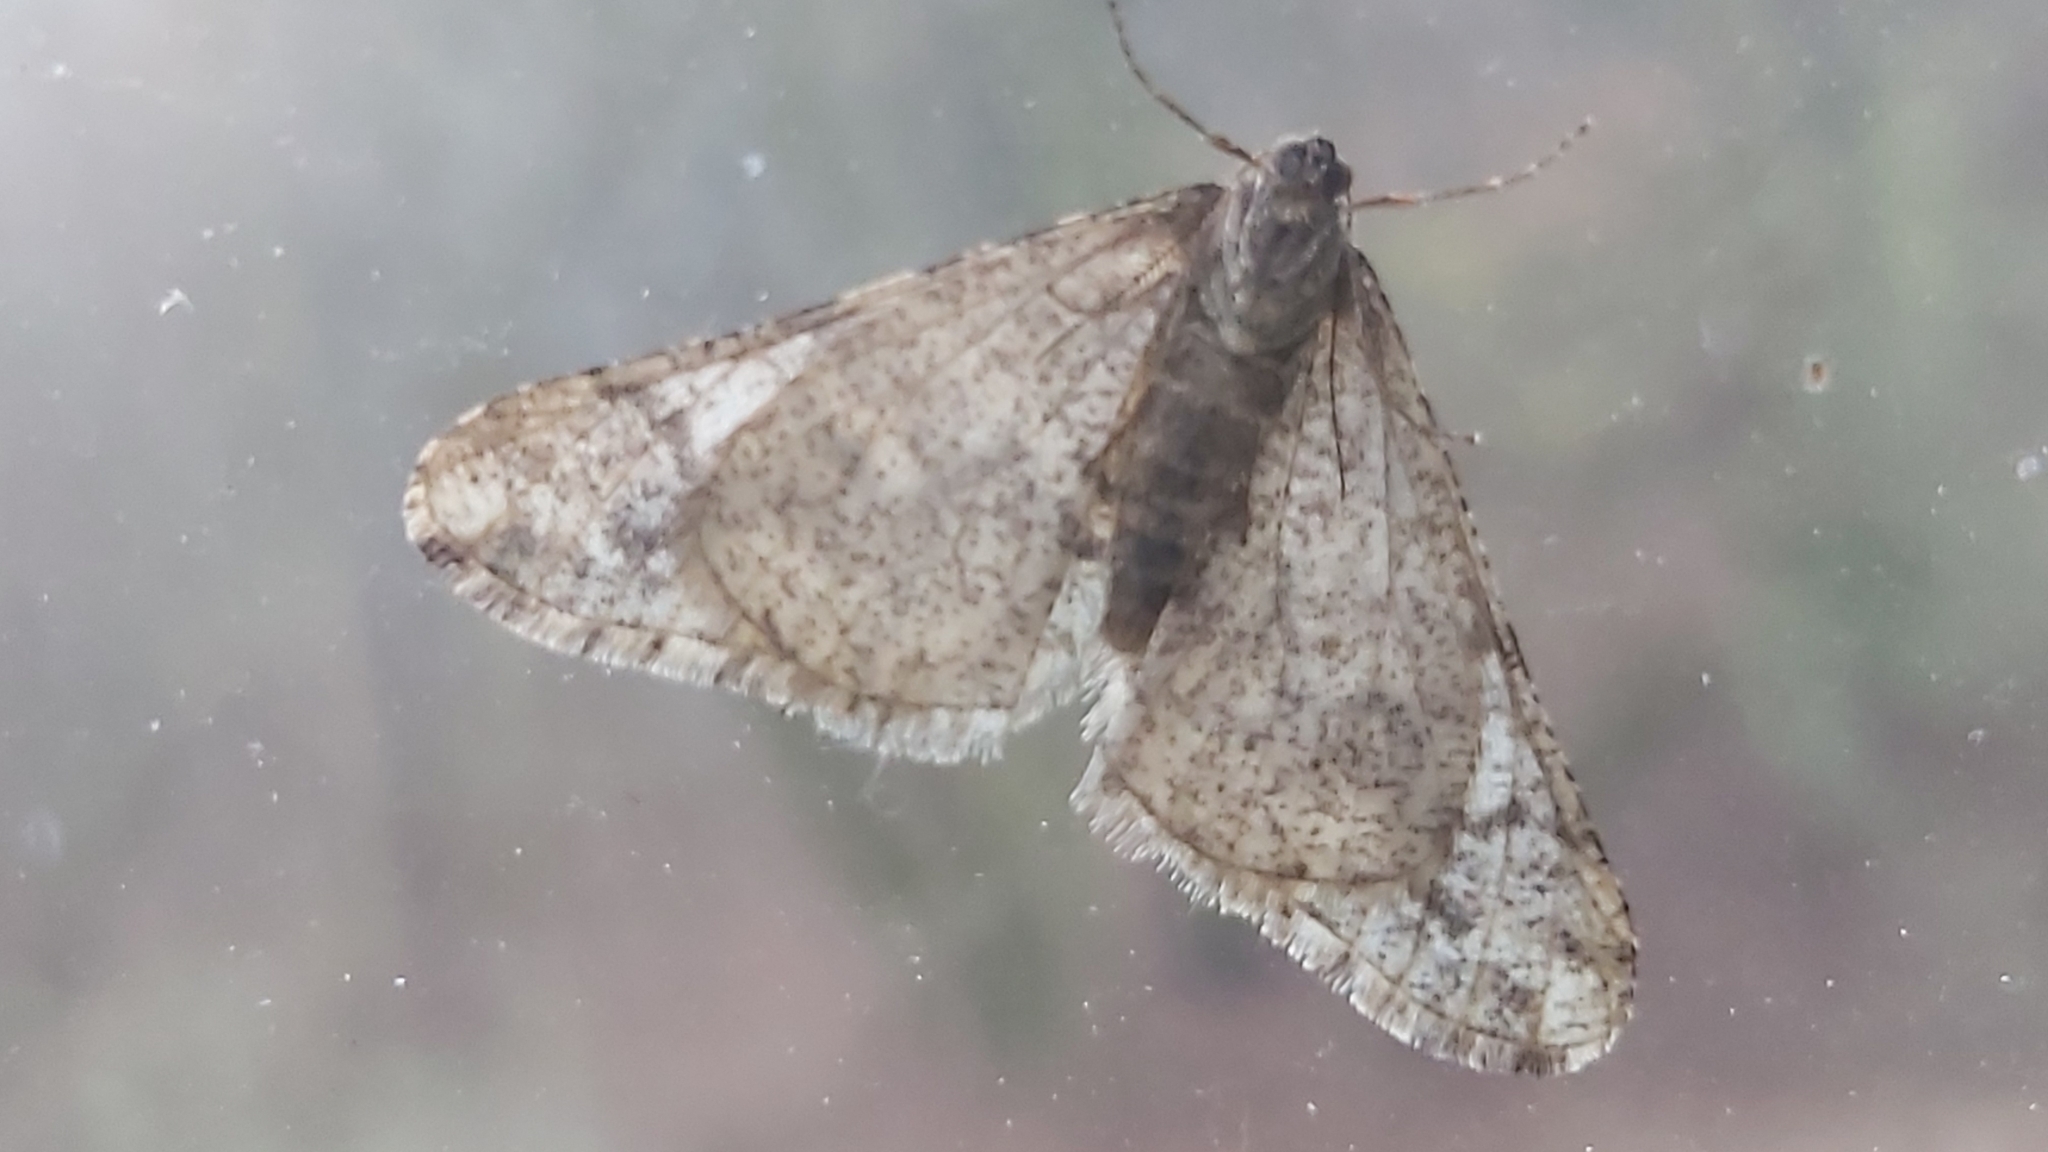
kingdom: Animalia
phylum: Arthropoda
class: Insecta
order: Lepidoptera
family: Geometridae
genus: Agriopis
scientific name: Agriopis leucophaearia
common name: Spring usher
